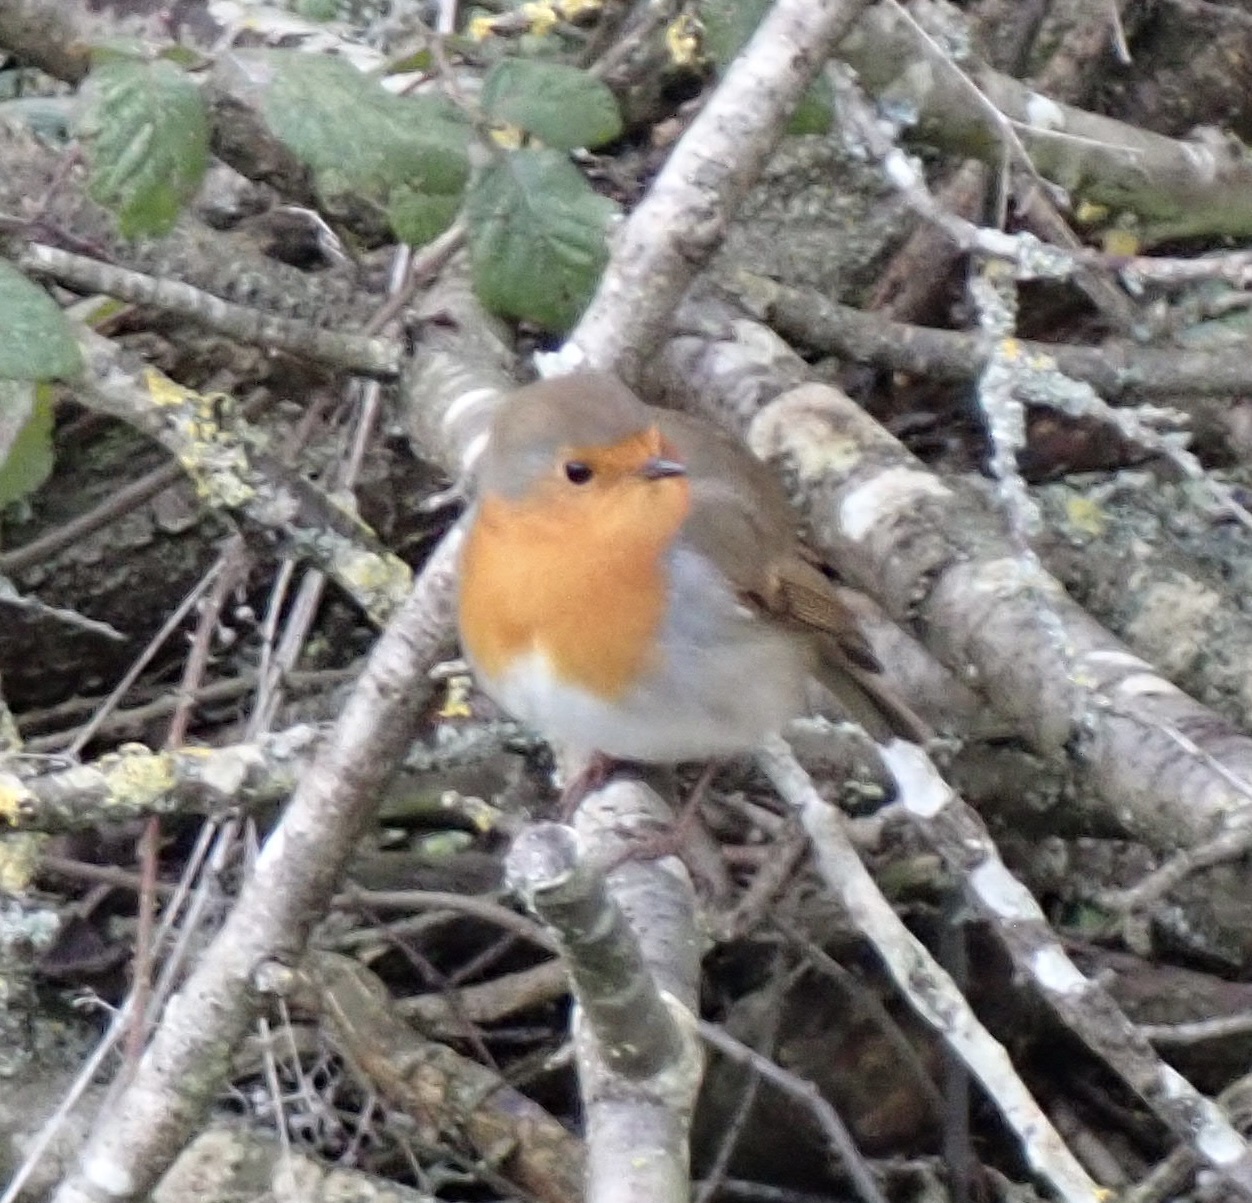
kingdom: Animalia
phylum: Chordata
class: Aves
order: Passeriformes
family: Muscicapidae
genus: Erithacus
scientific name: Erithacus rubecula
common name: European robin
